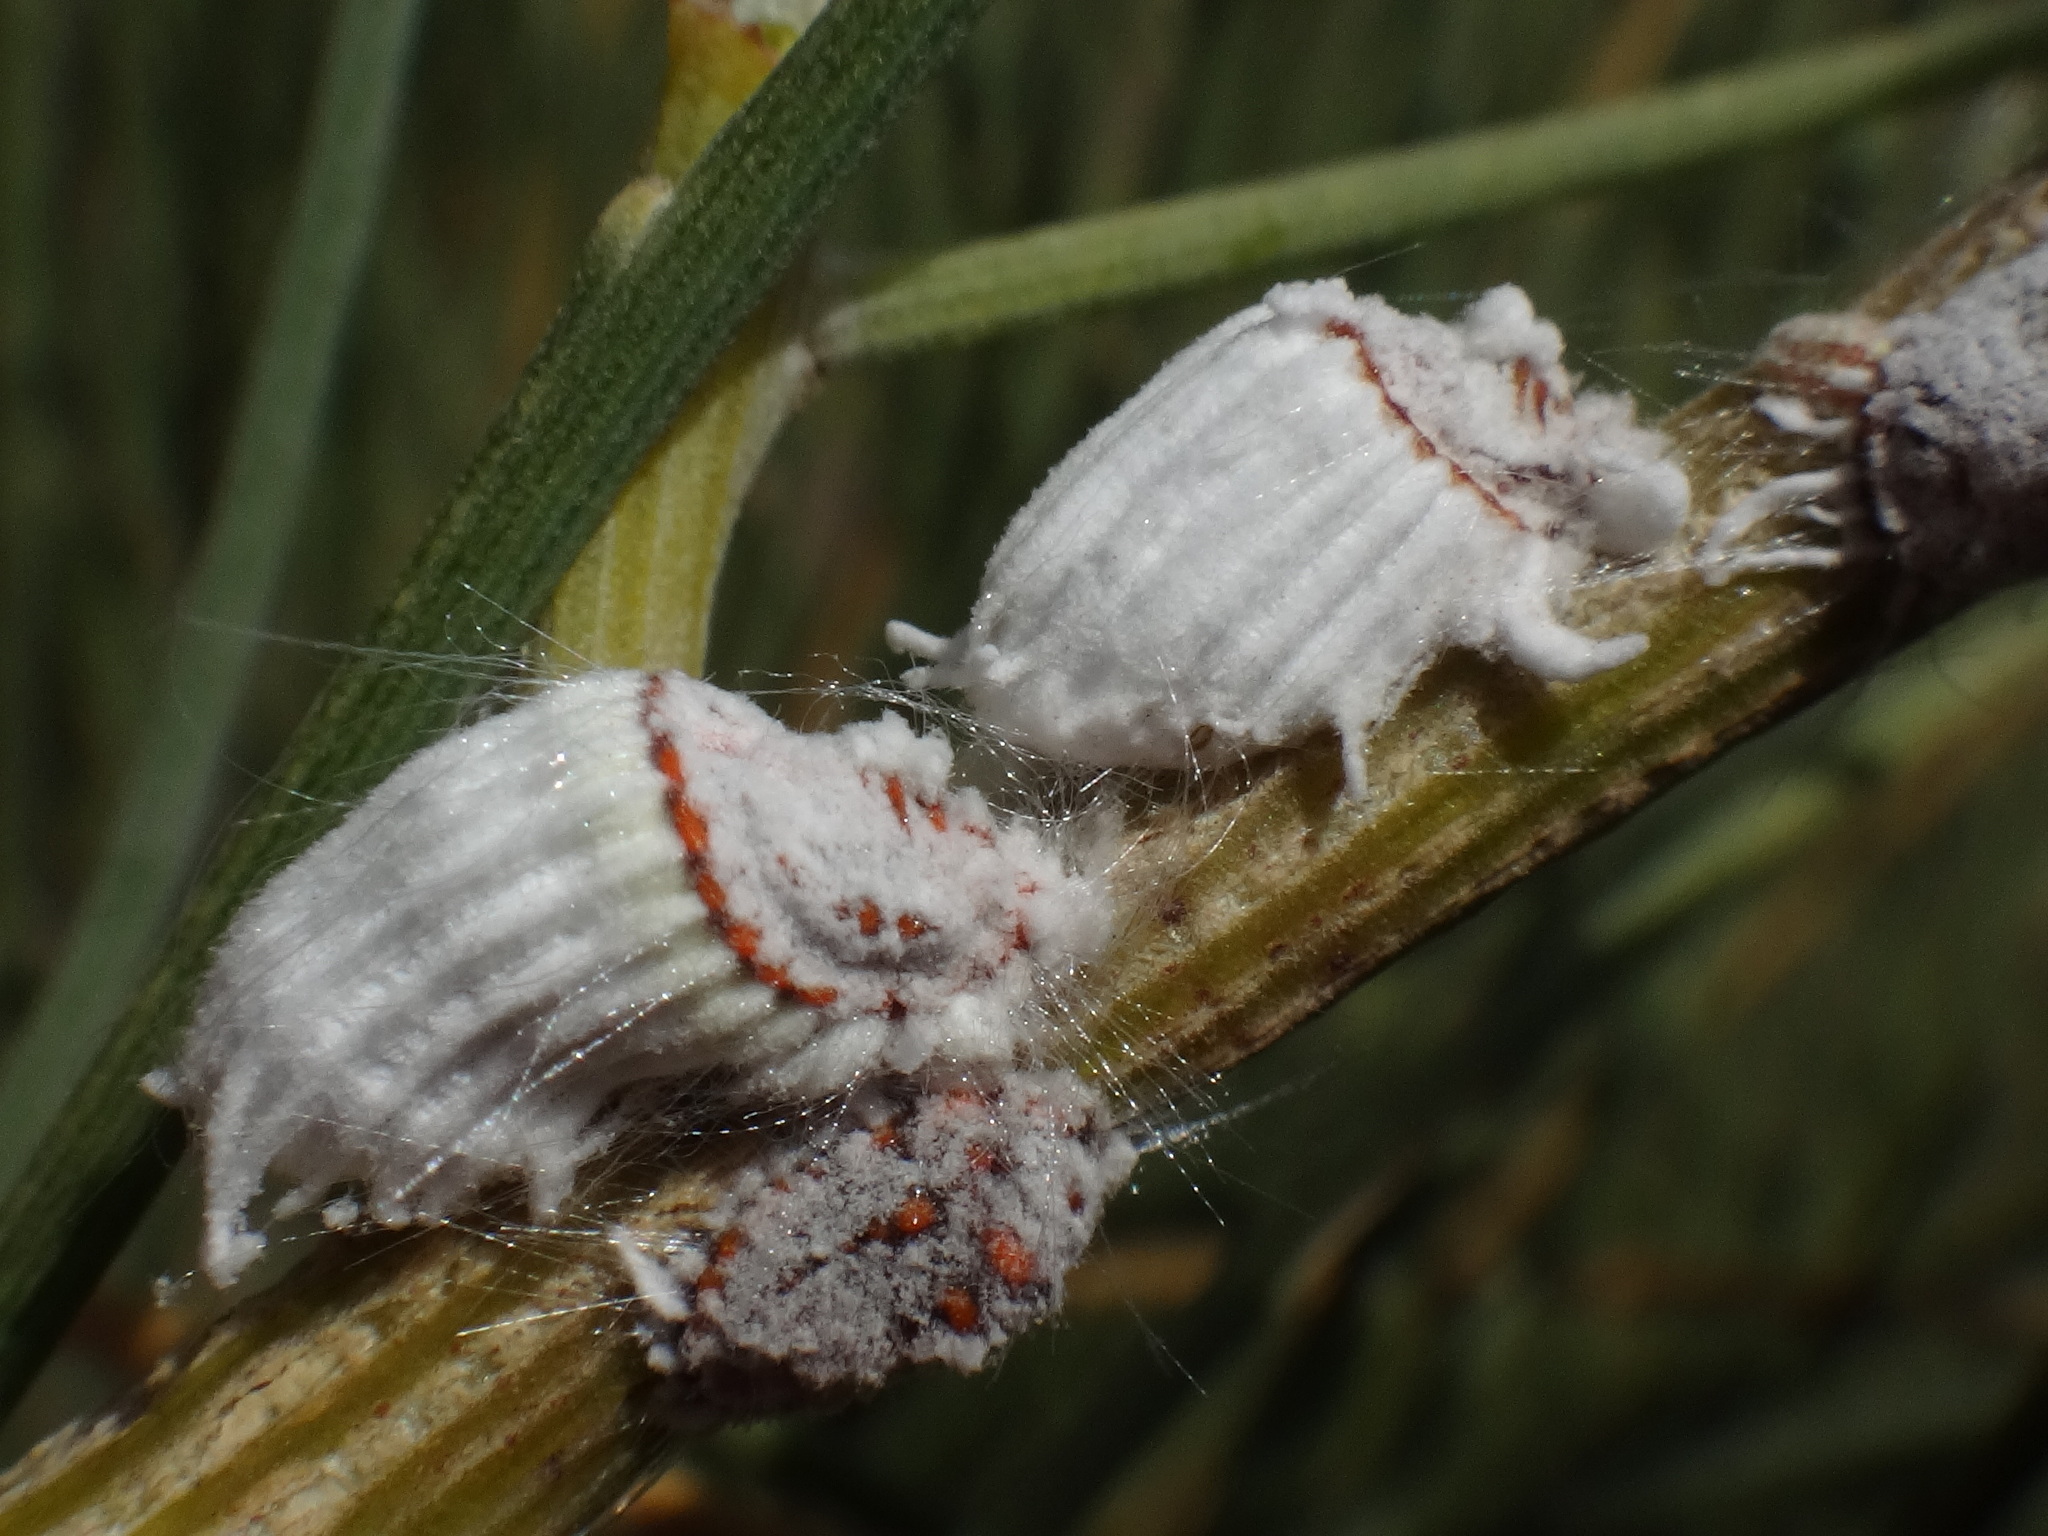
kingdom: Animalia
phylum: Arthropoda
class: Insecta
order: Hemiptera
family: Margarodidae
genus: Icerya
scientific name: Icerya purchasi
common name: Cottony cushion scale
